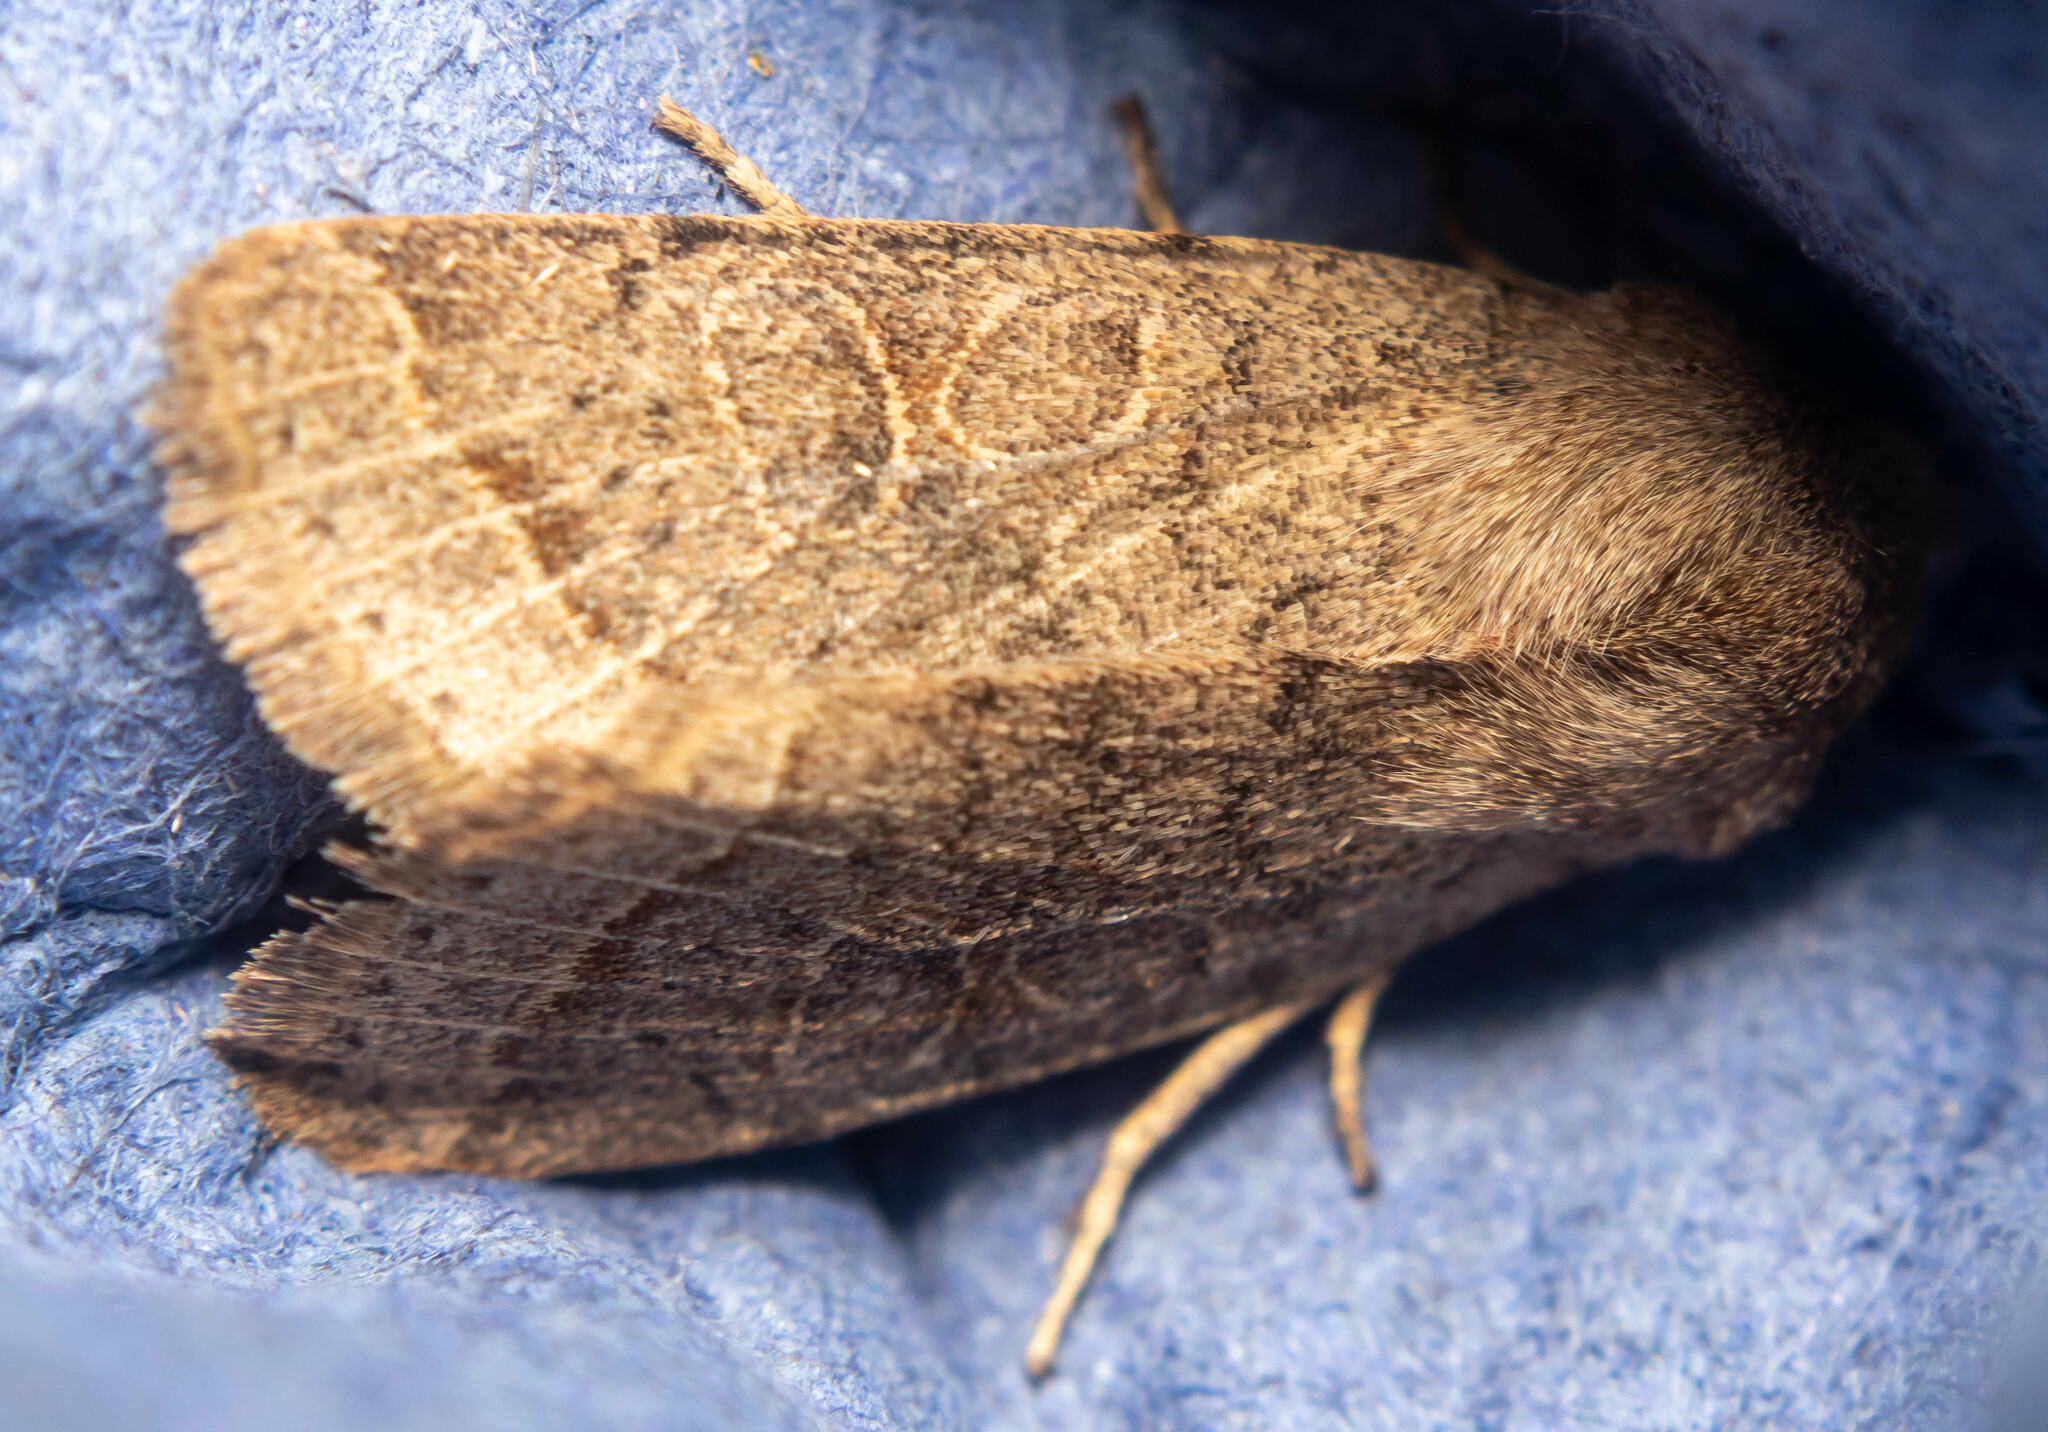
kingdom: Animalia
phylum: Arthropoda
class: Insecta
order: Lepidoptera
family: Noctuidae
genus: Orthosia
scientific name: Orthosia cerasi
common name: Common quaker
